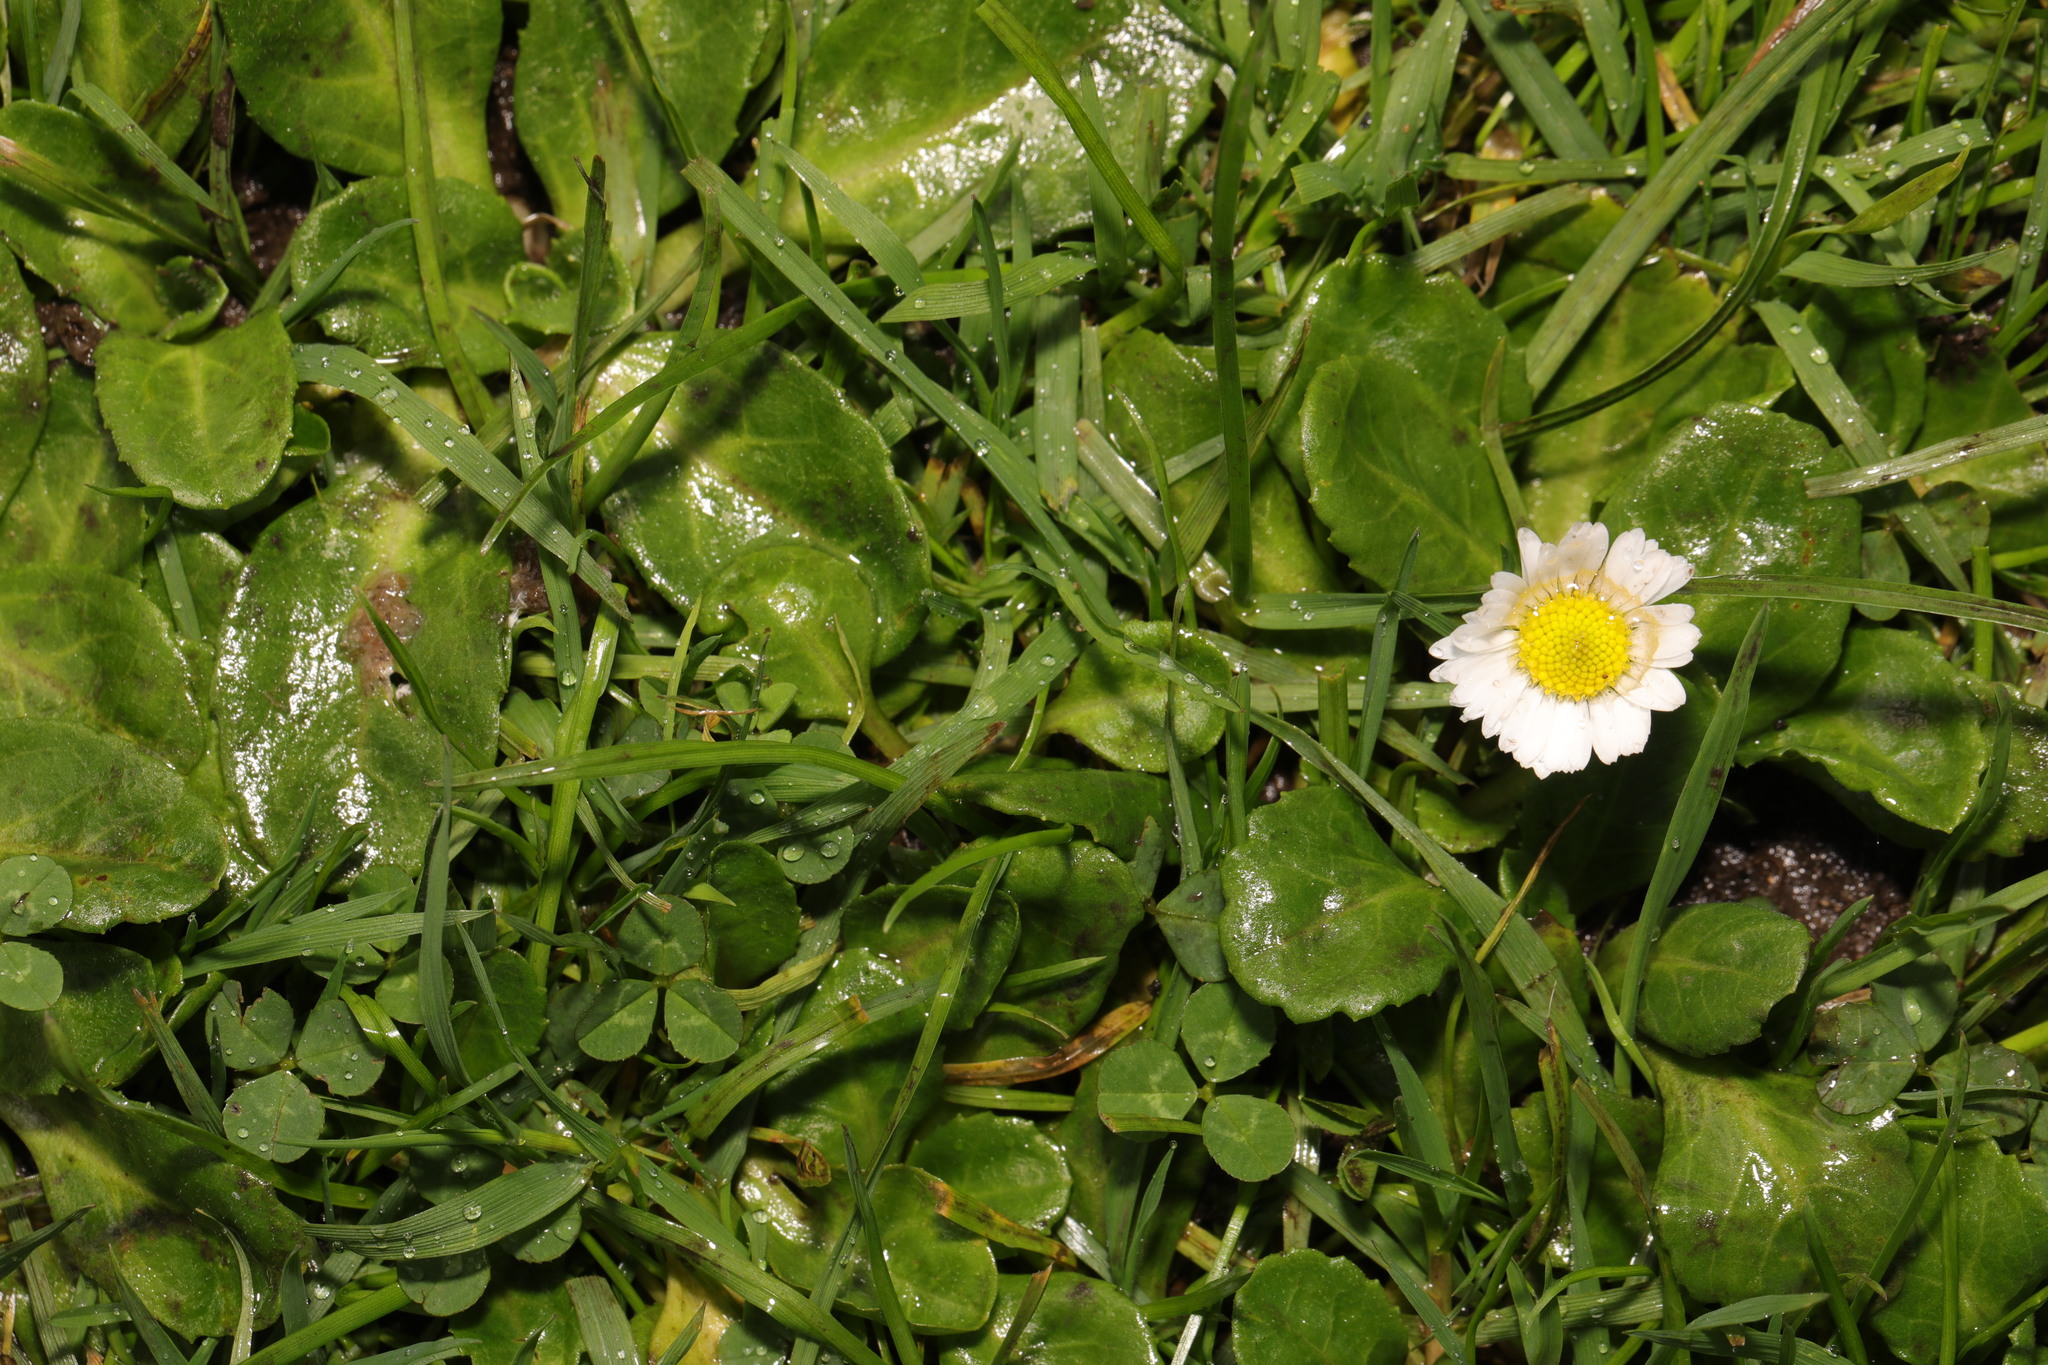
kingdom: Plantae
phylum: Tracheophyta
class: Magnoliopsida
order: Asterales
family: Asteraceae
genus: Bellis
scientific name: Bellis perennis
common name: Lawndaisy
